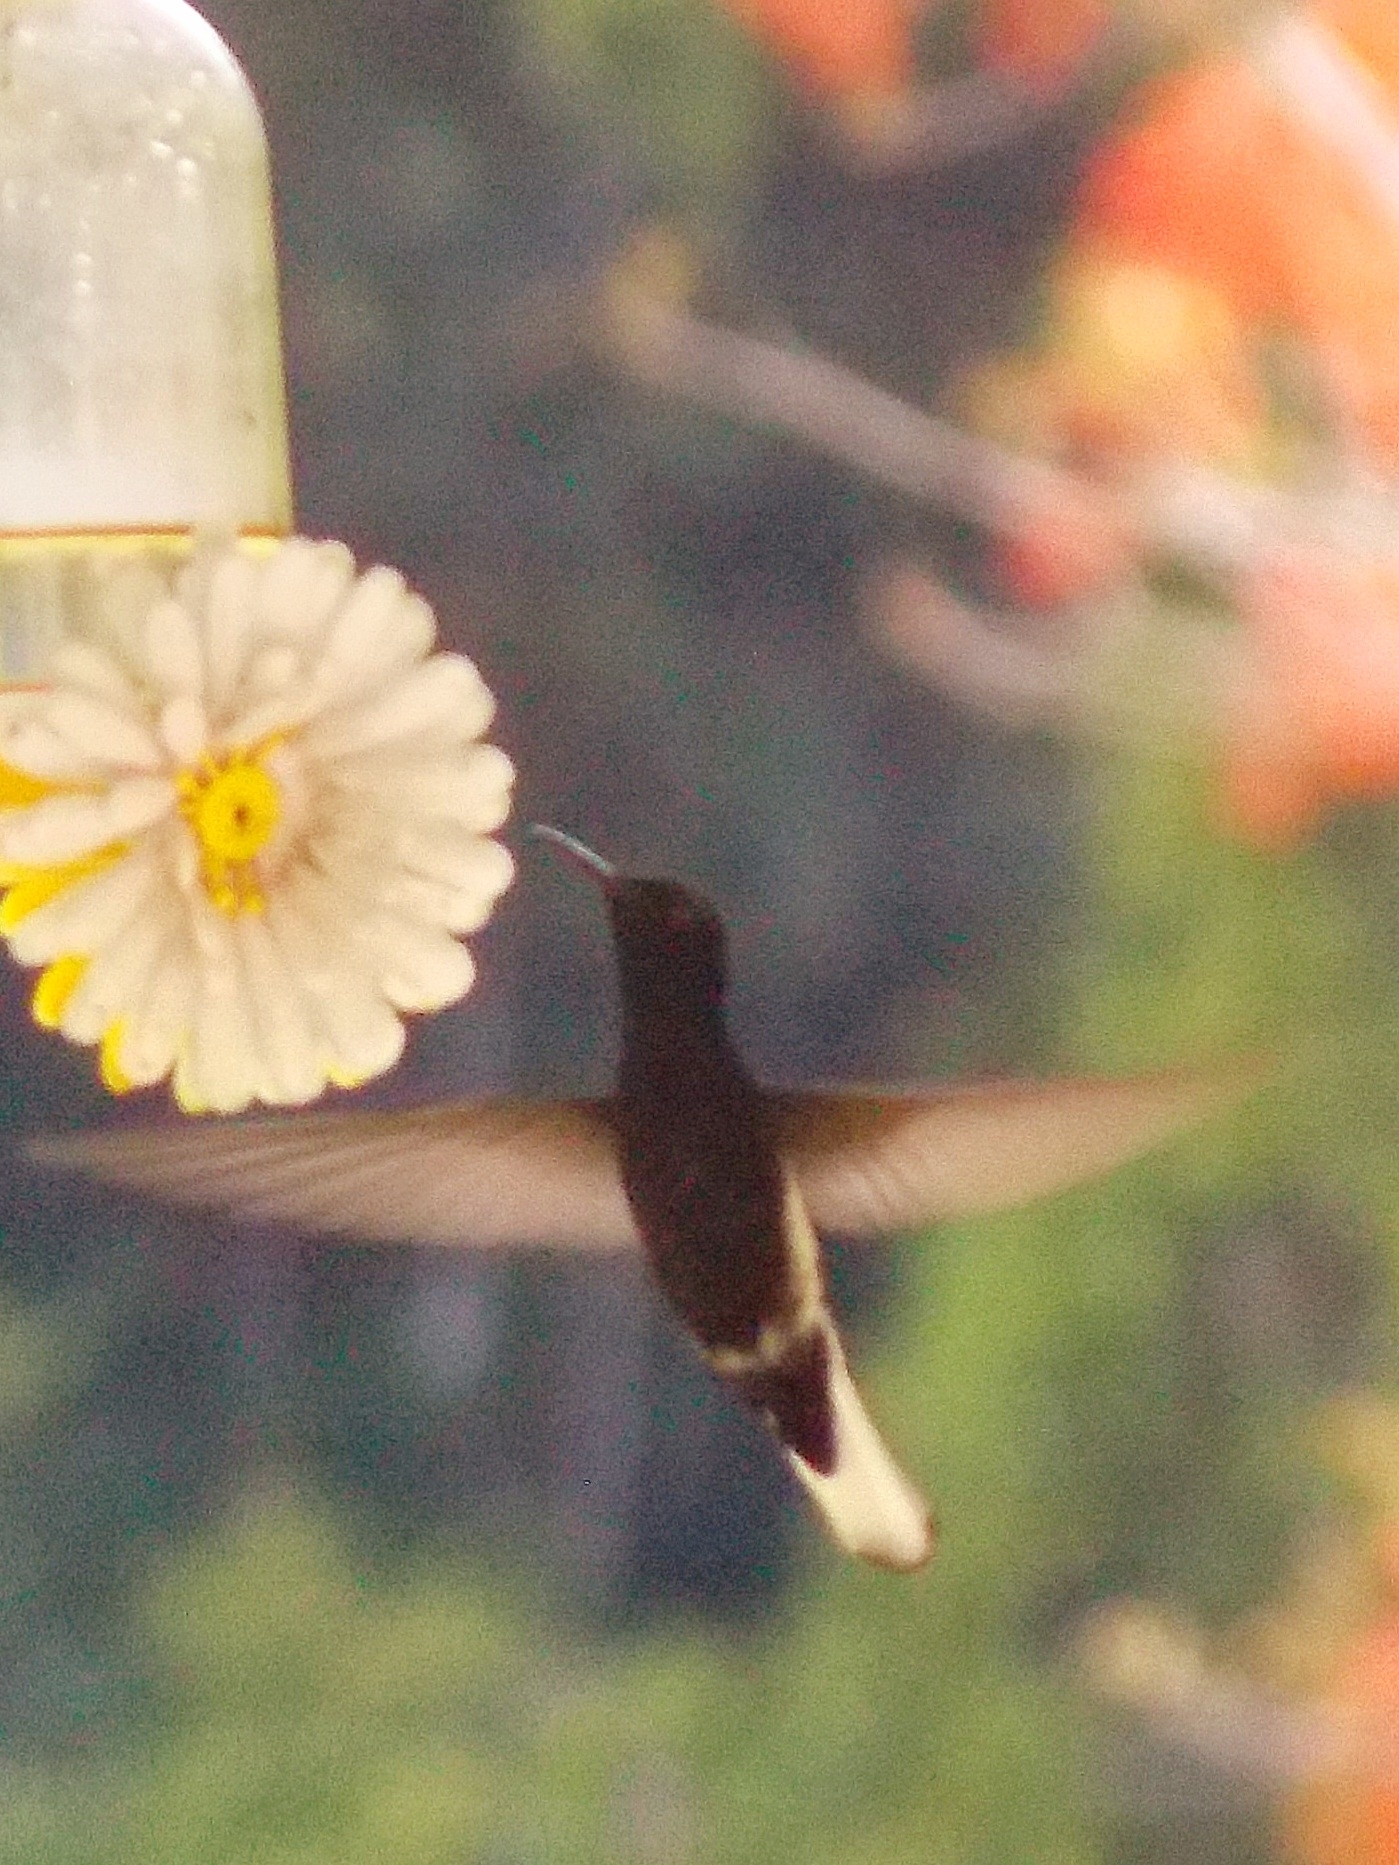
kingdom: Animalia
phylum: Chordata
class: Aves
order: Apodiformes
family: Trochilidae
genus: Florisuga
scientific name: Florisuga fusca
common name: Black jacobin
